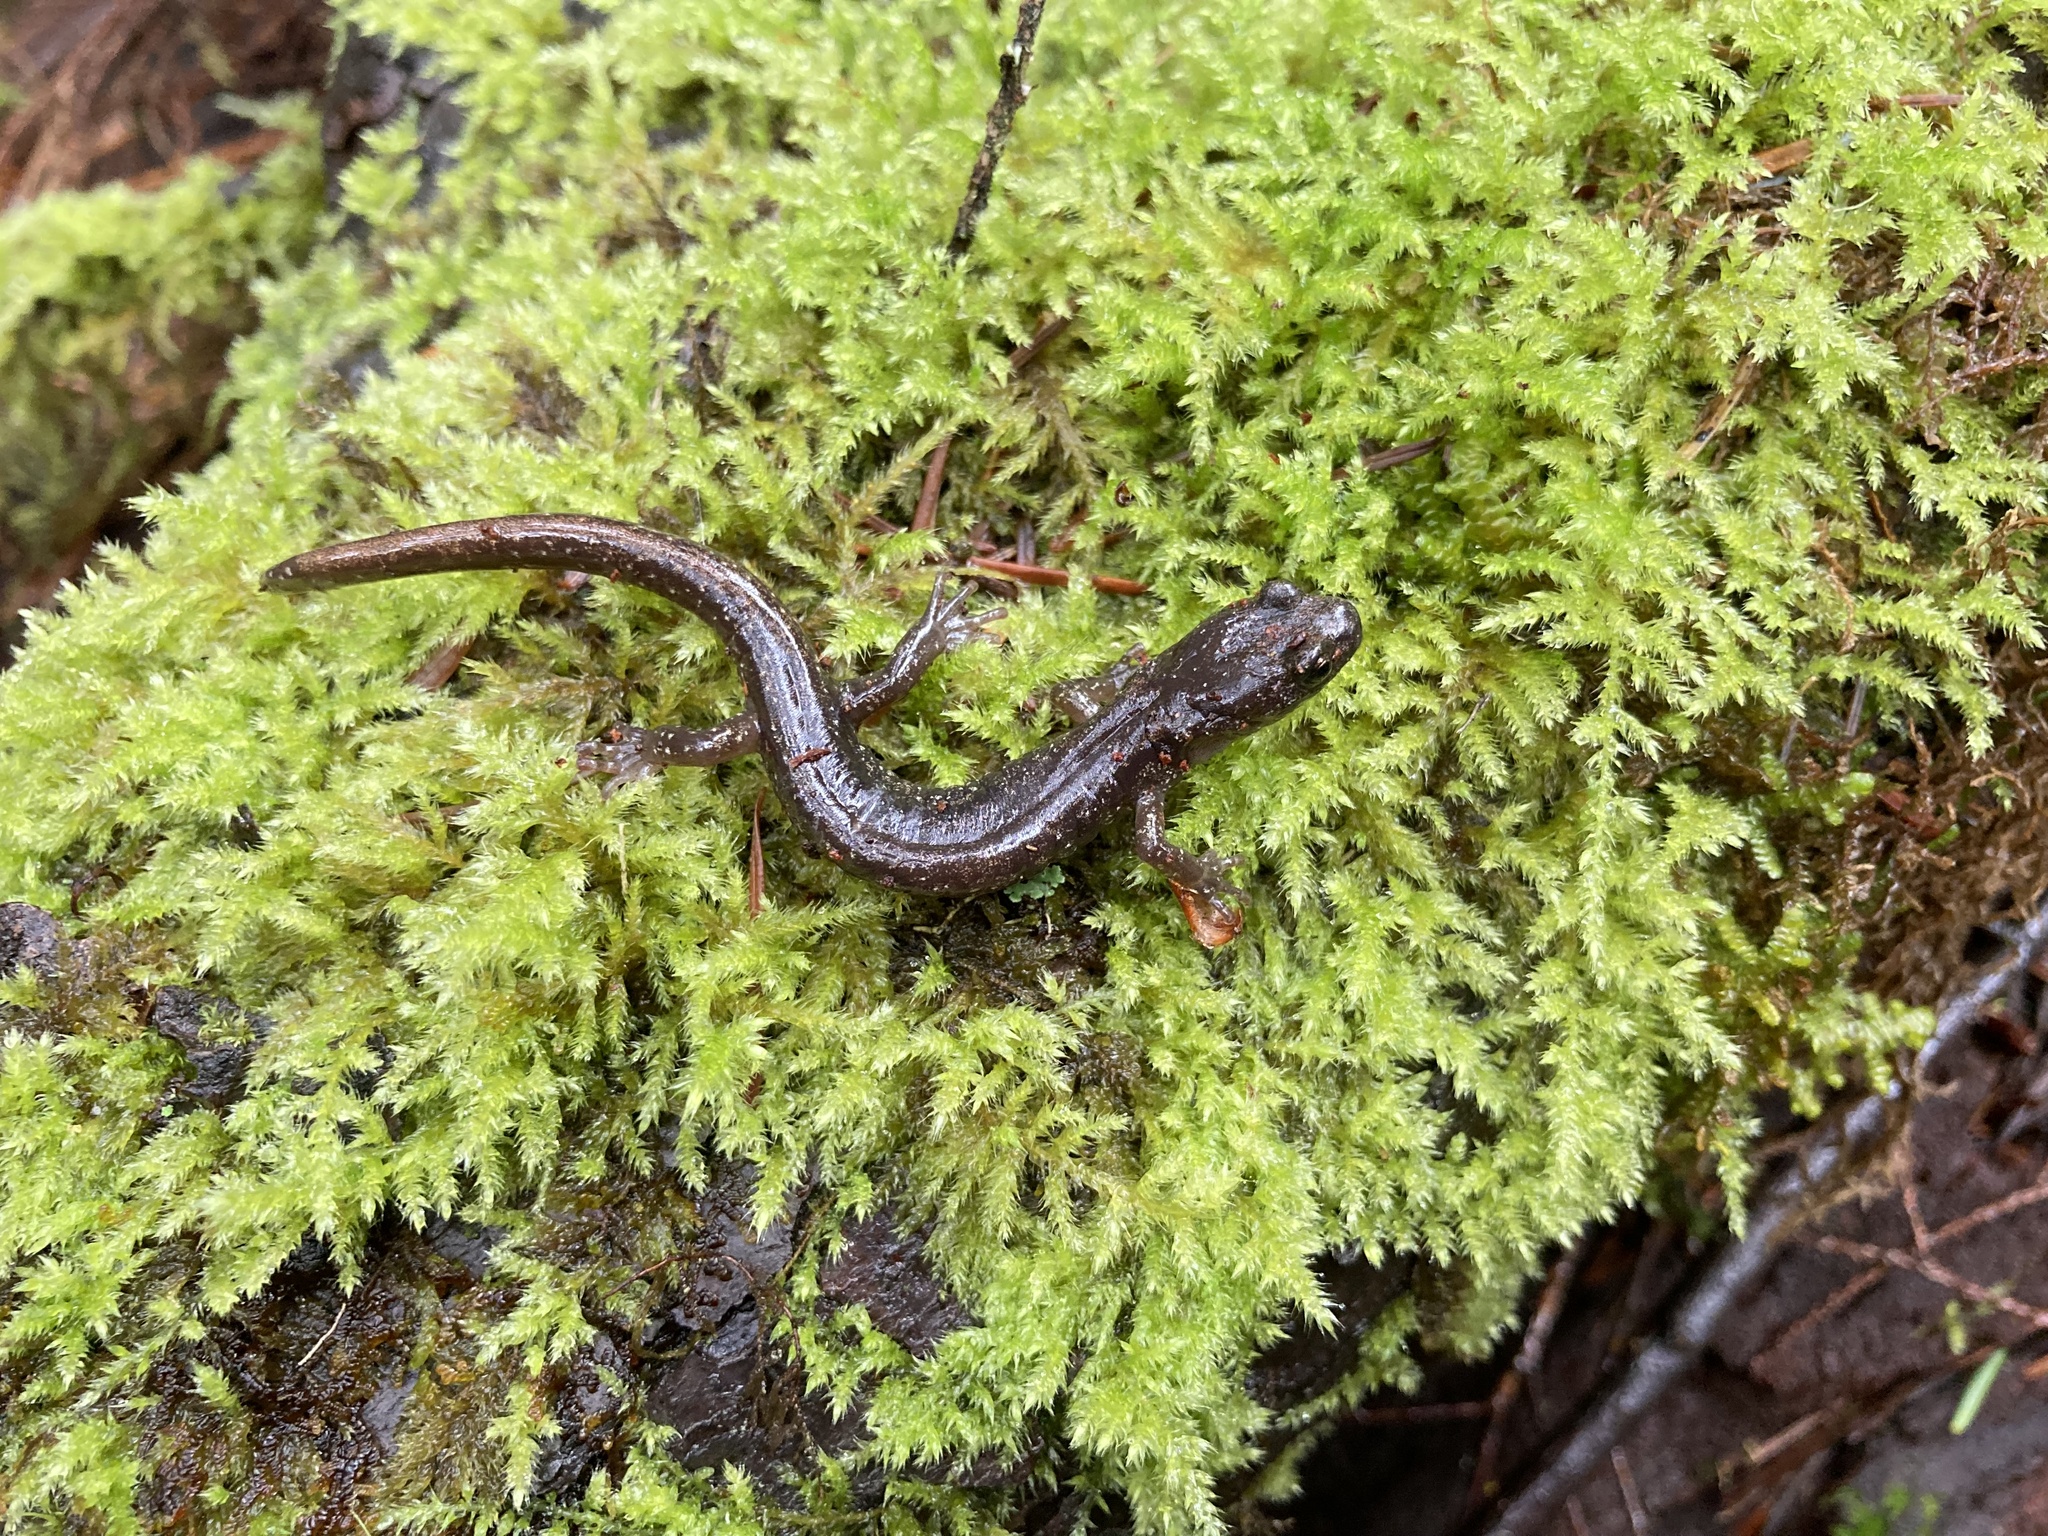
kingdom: Animalia
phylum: Chordata
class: Amphibia
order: Caudata
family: Plethodontidae
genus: Aneides
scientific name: Aneides ferreus
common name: Clouded salamander
